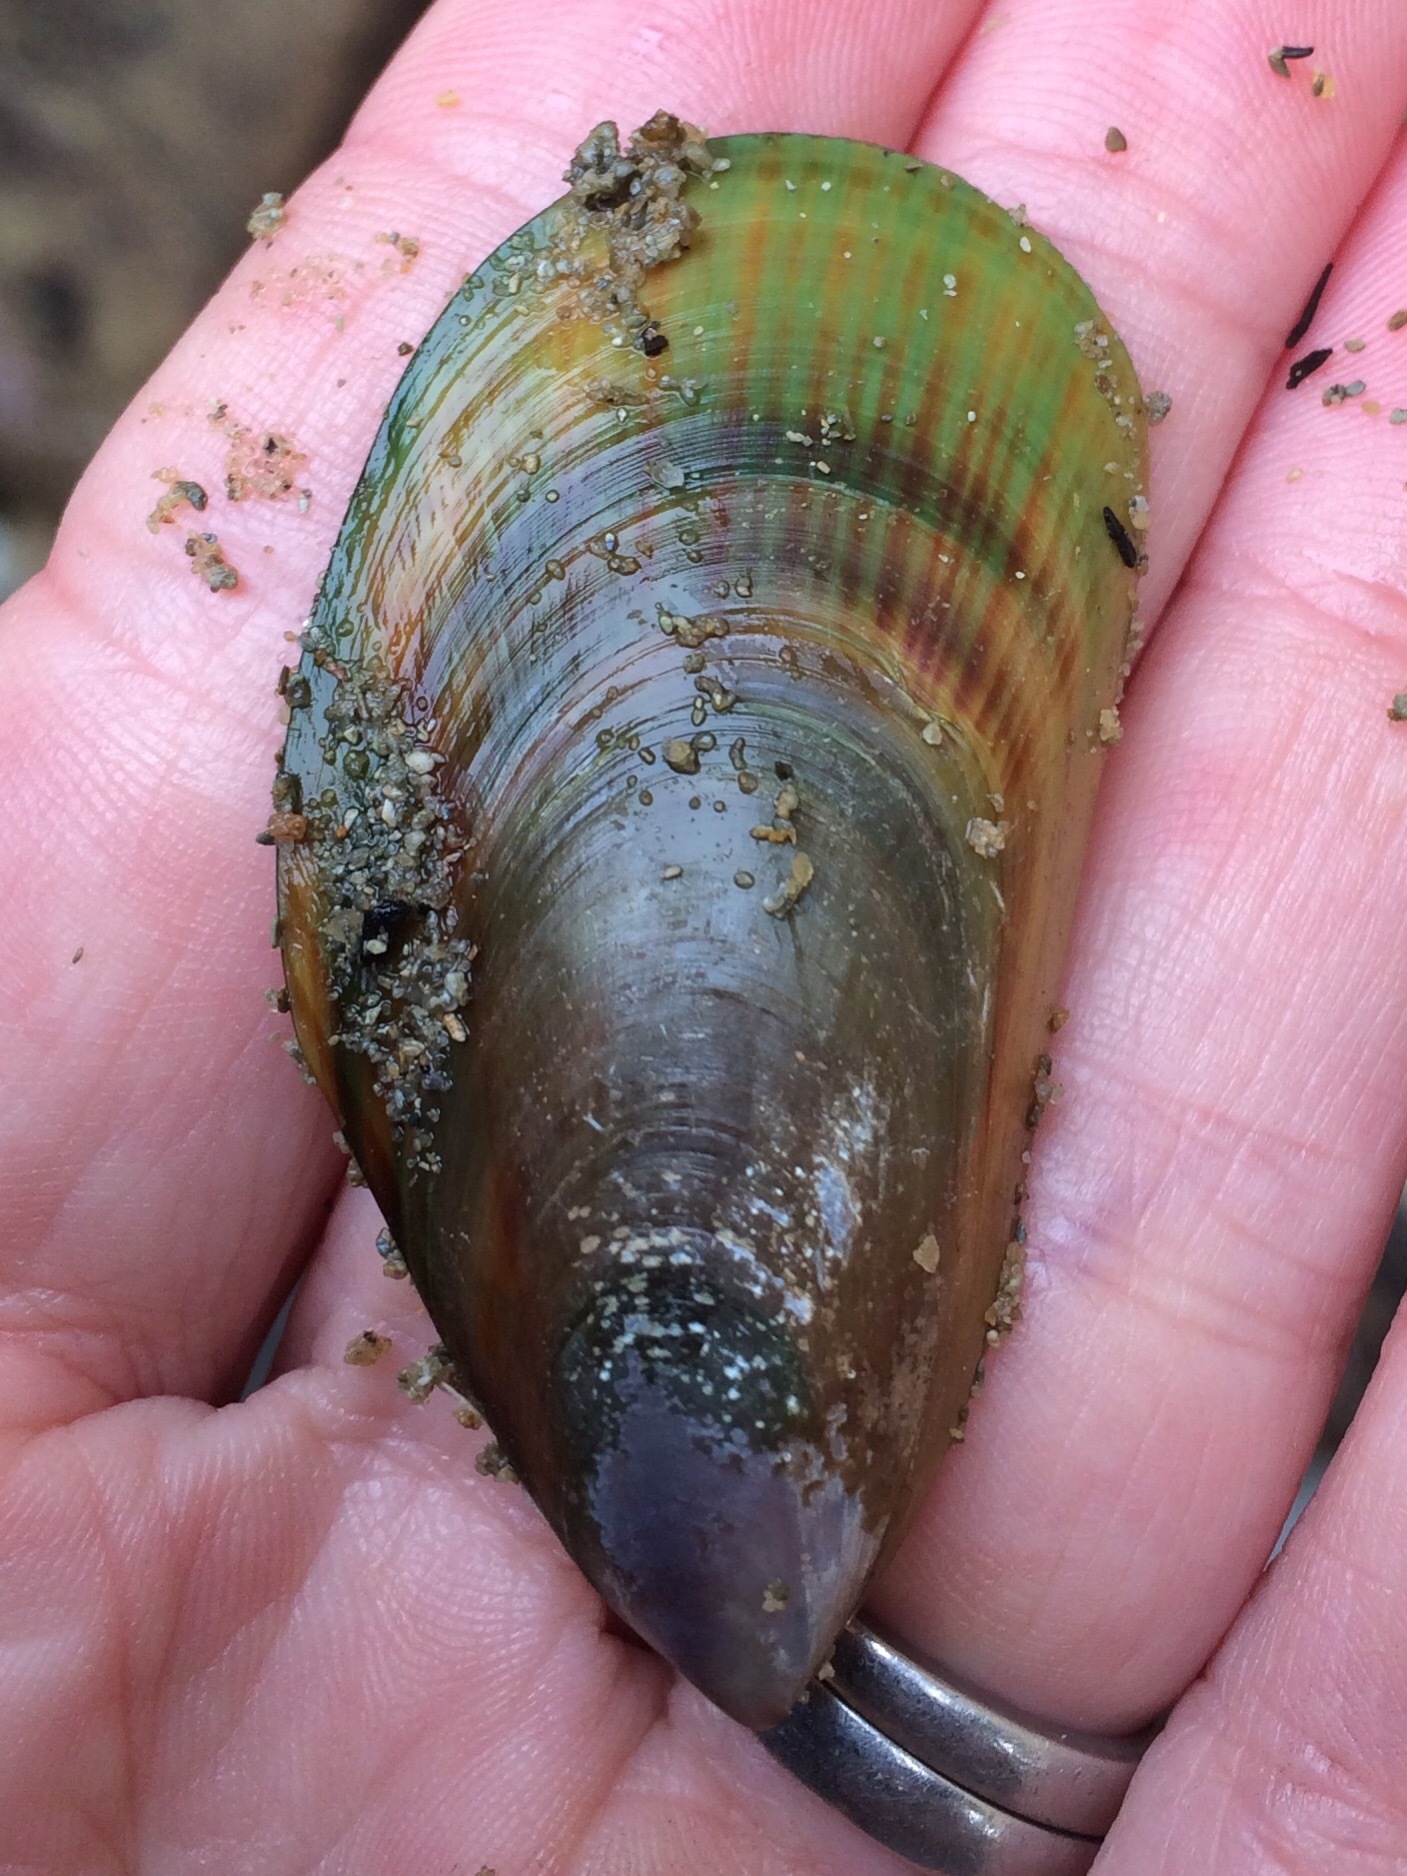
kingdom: Animalia
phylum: Mollusca
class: Bivalvia
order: Mytilida
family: Mytilidae
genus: Perna
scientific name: Perna canaliculus
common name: New zealand greenshelltm
